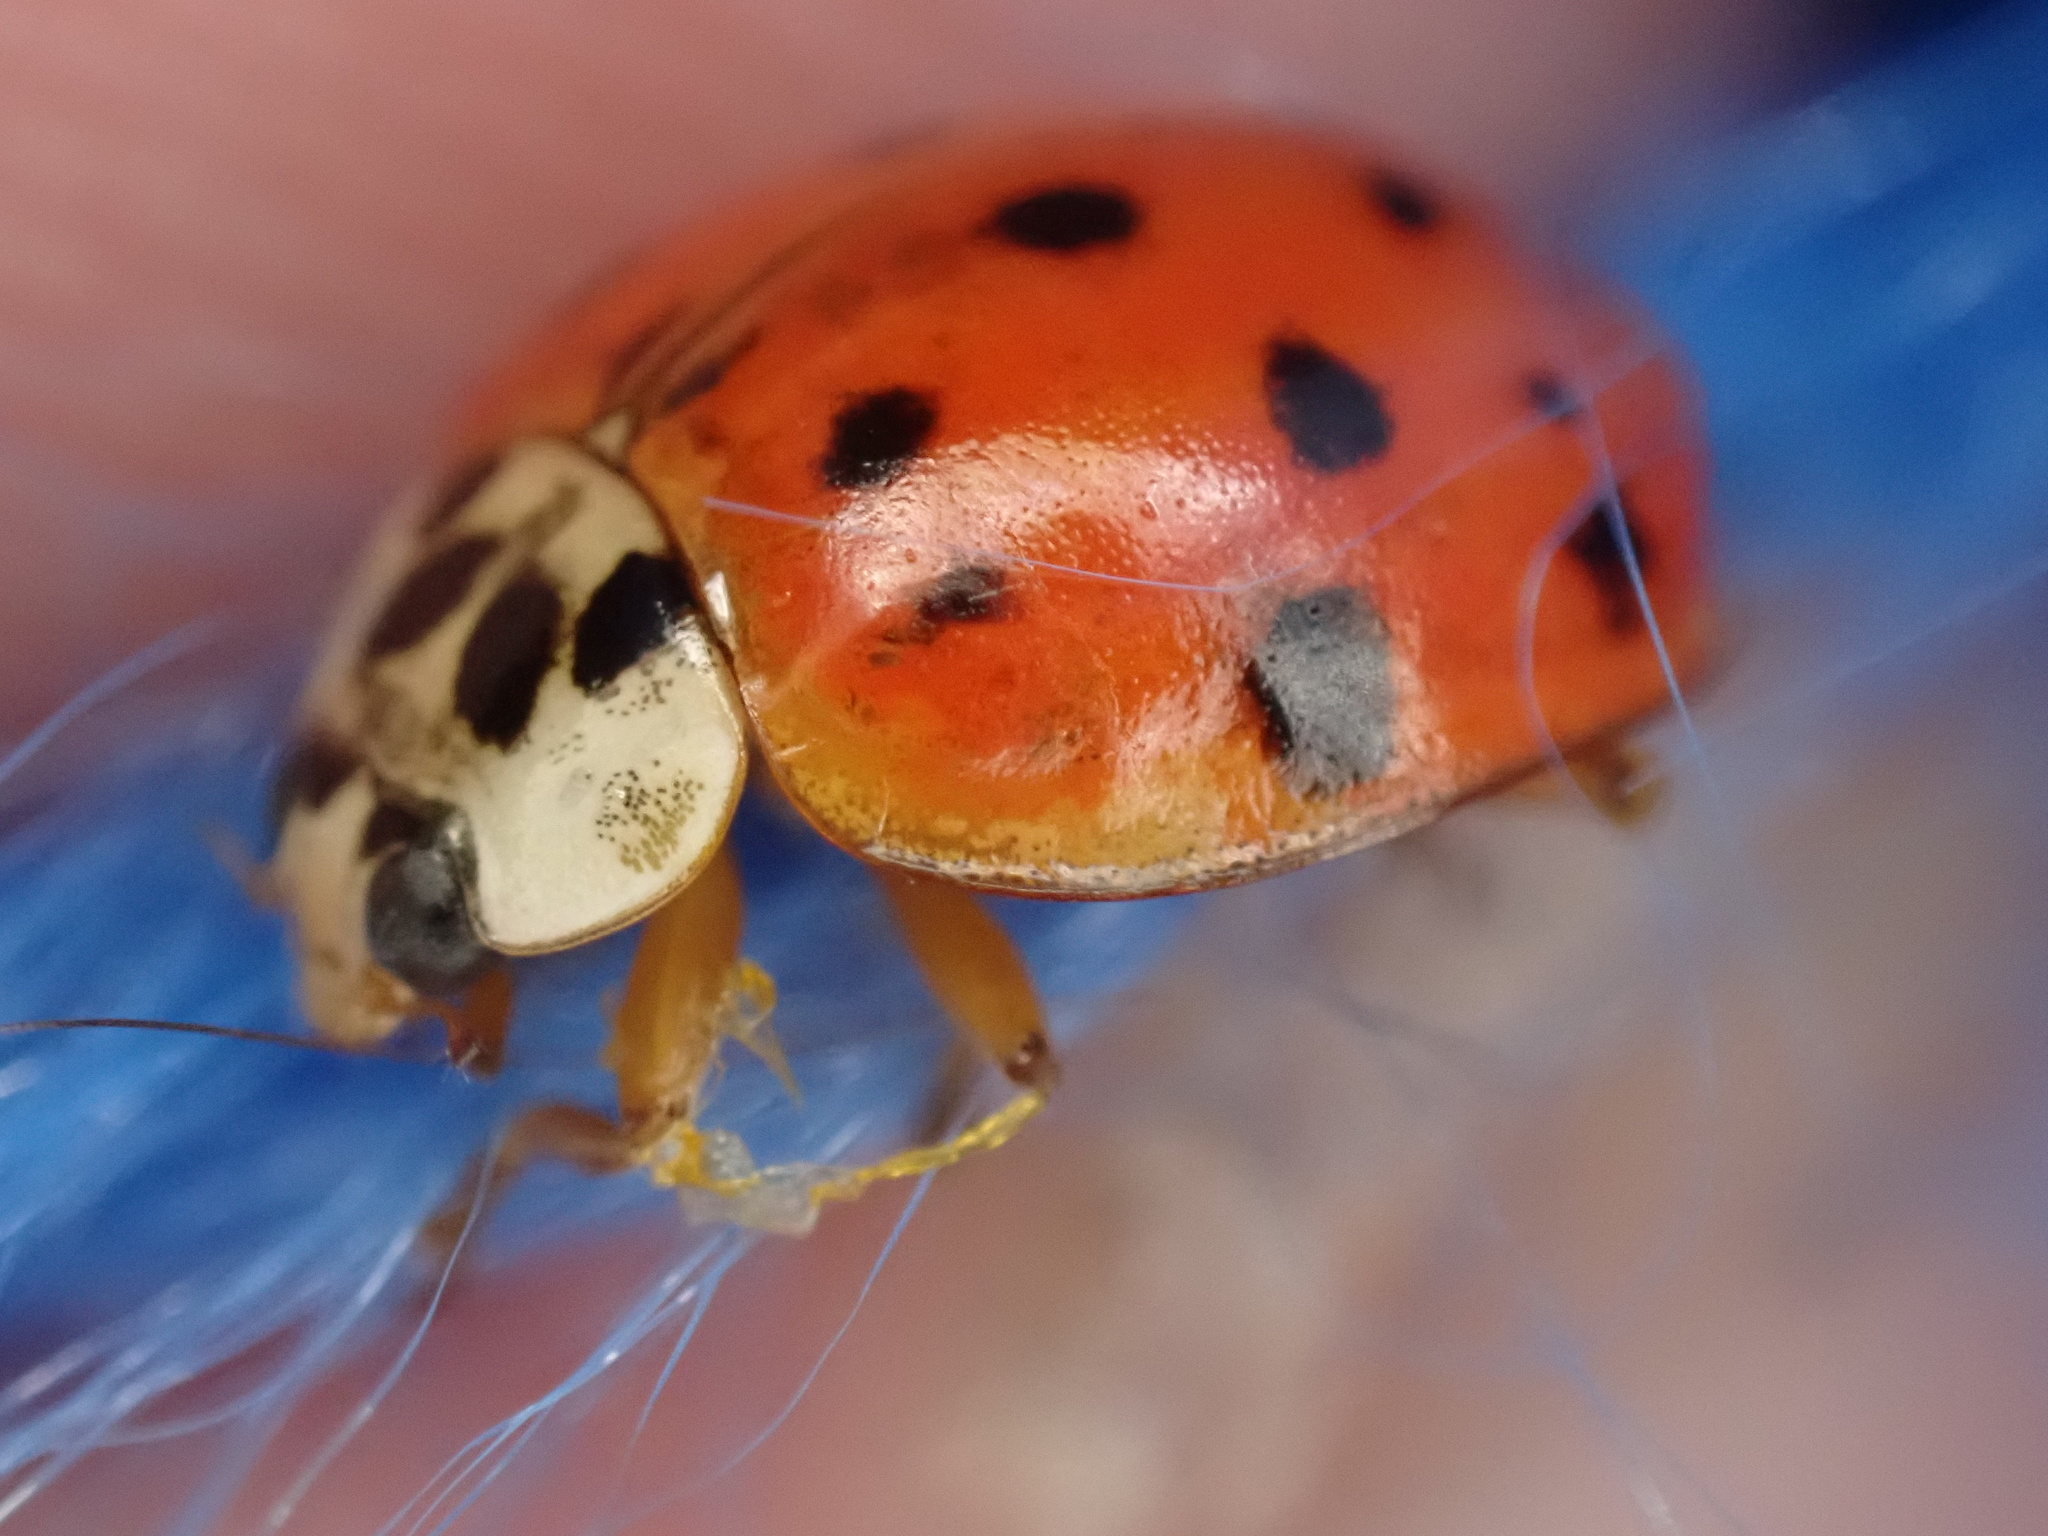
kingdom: Animalia
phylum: Arthropoda
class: Insecta
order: Coleoptera
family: Coccinellidae
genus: Harmonia
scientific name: Harmonia axyridis
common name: Harlequin ladybird
